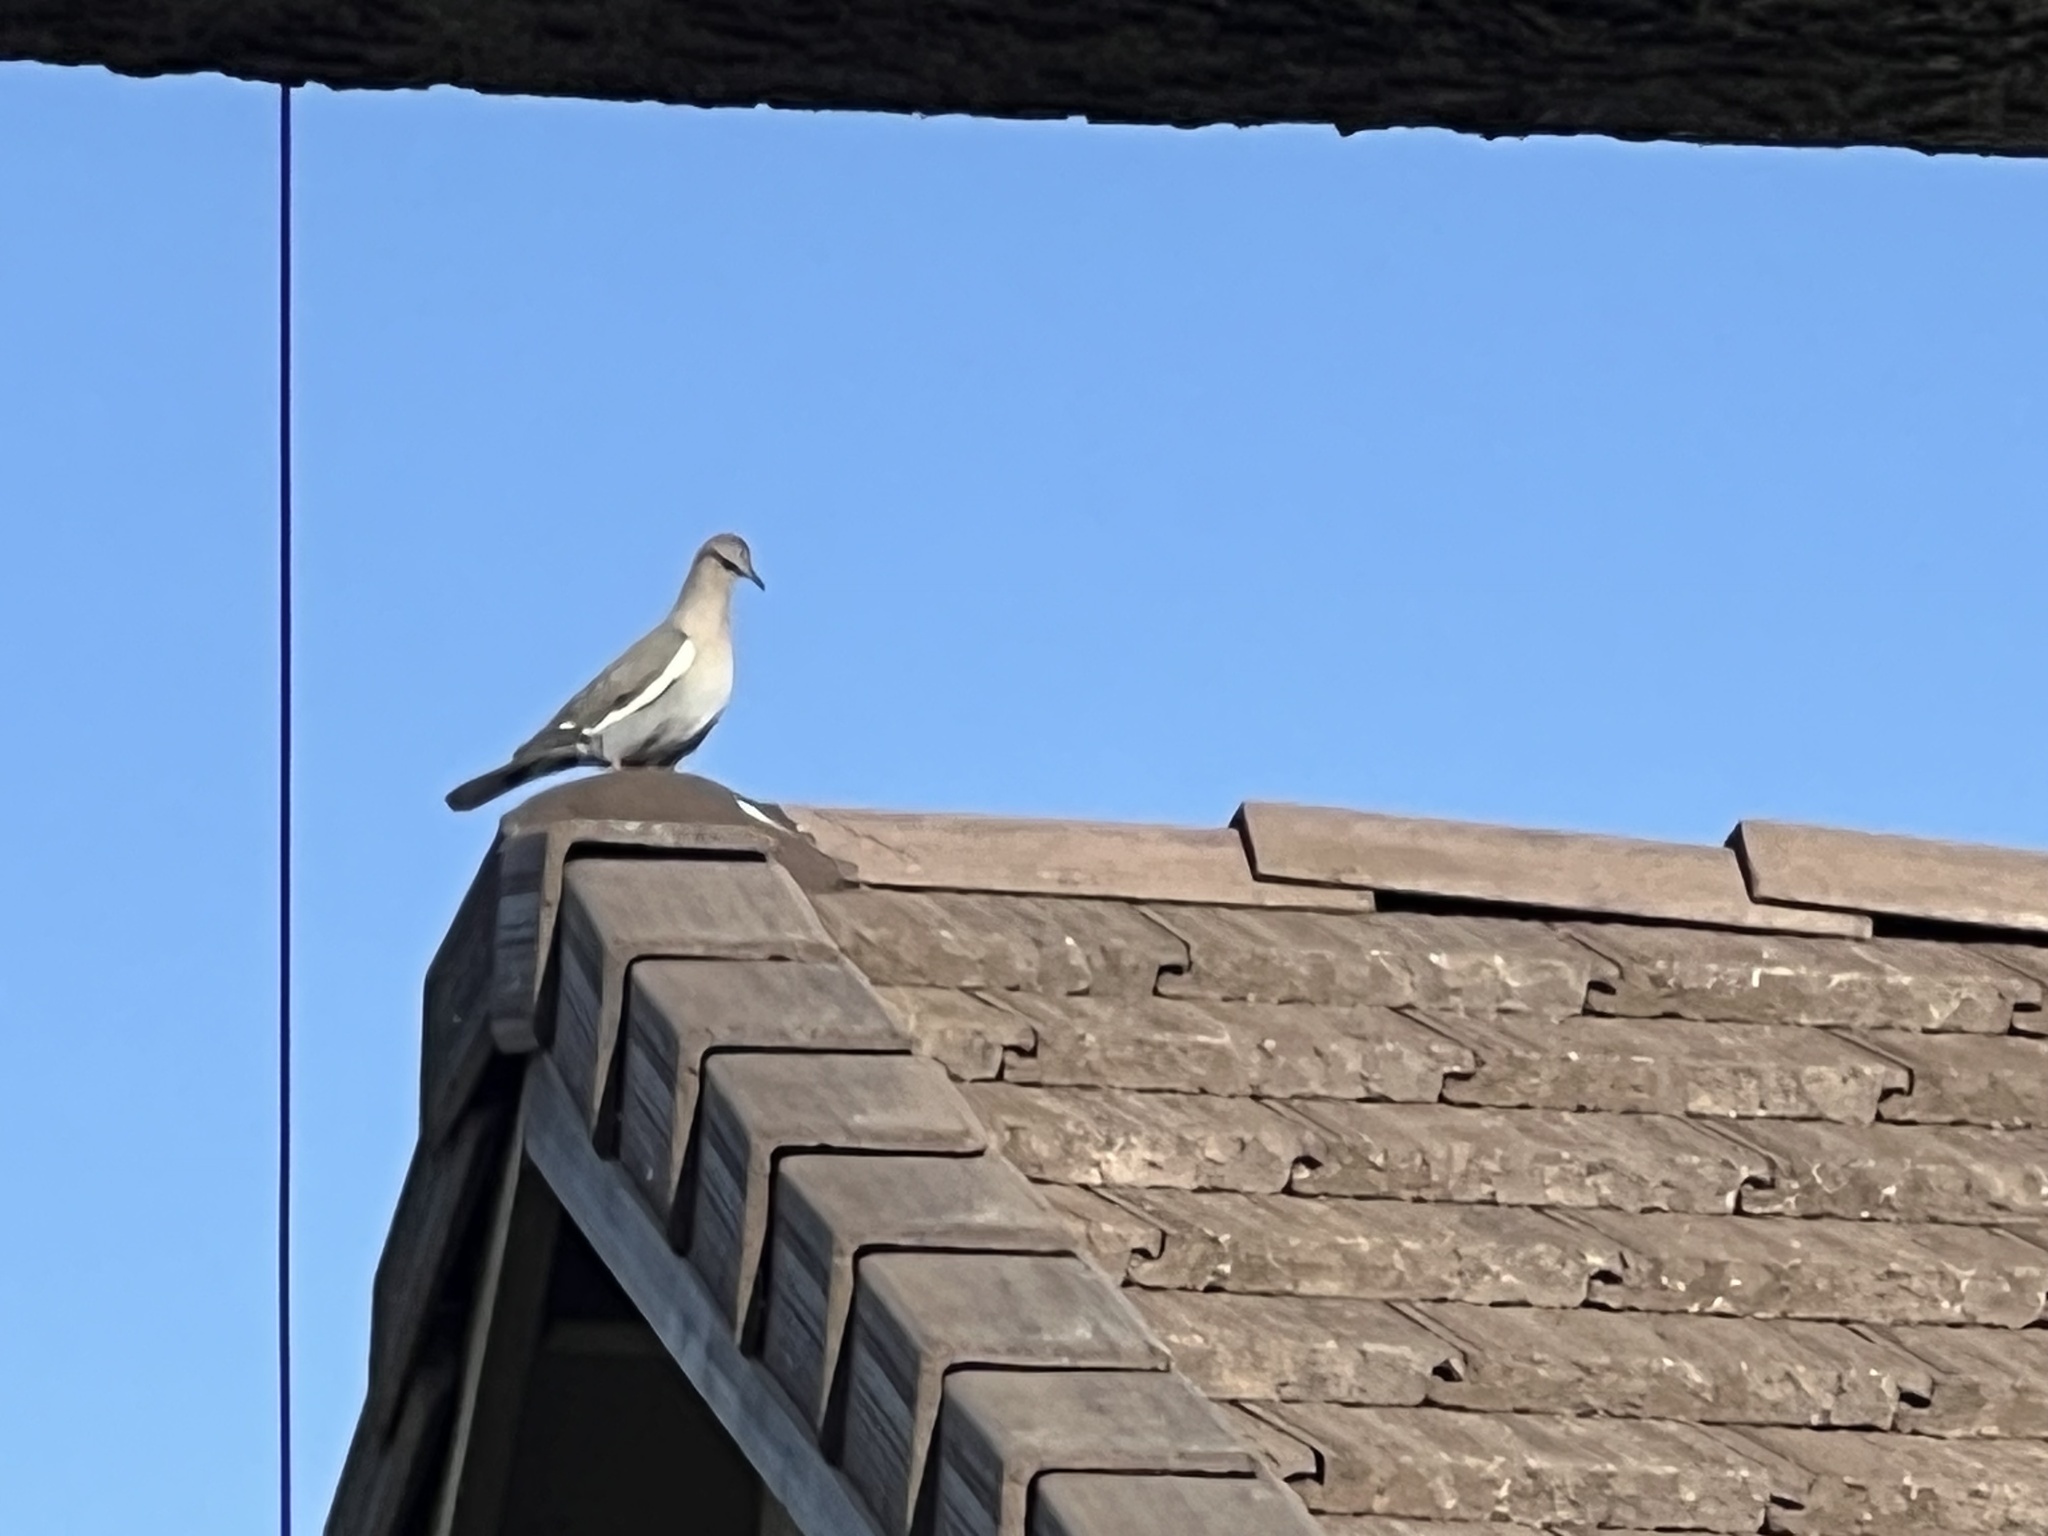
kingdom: Animalia
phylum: Chordata
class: Aves
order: Columbiformes
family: Columbidae
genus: Zenaida
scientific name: Zenaida asiatica
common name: White-winged dove
